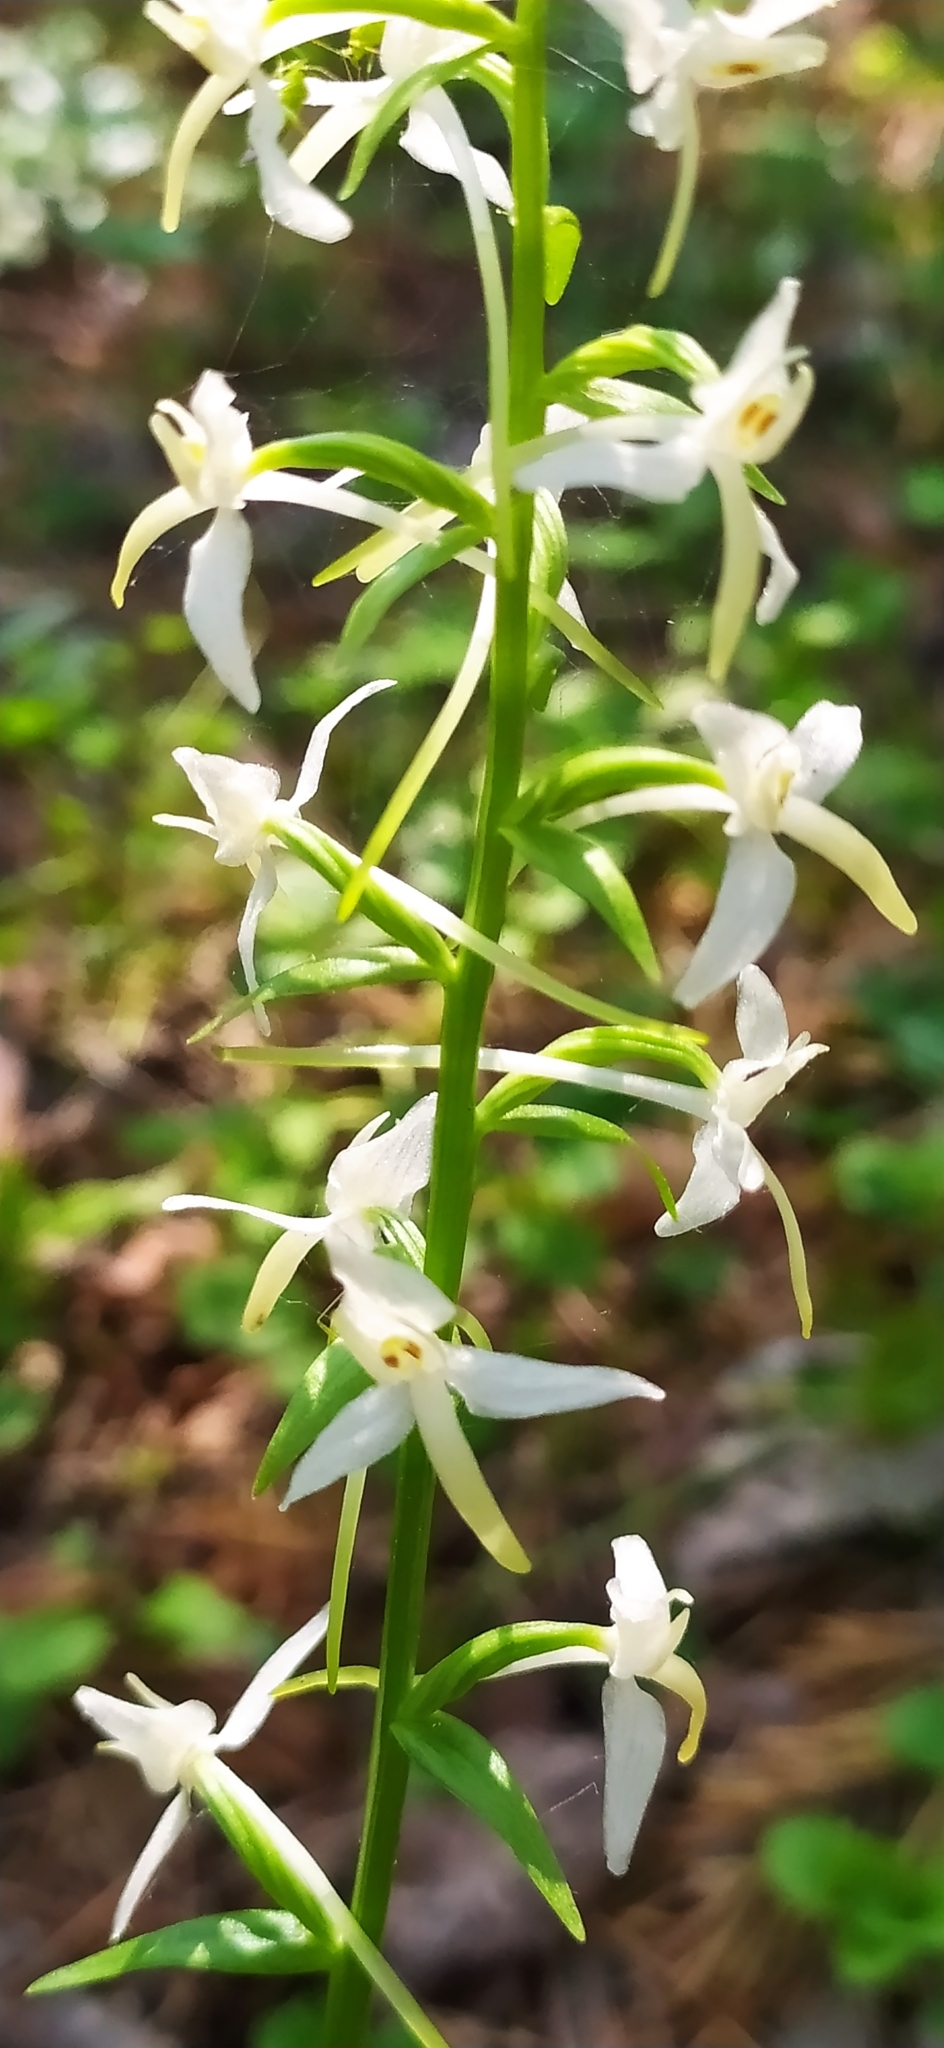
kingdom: Plantae
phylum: Tracheophyta
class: Liliopsida
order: Asparagales
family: Orchidaceae
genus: Platanthera
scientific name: Platanthera bifolia
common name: Lesser butterfly-orchid
